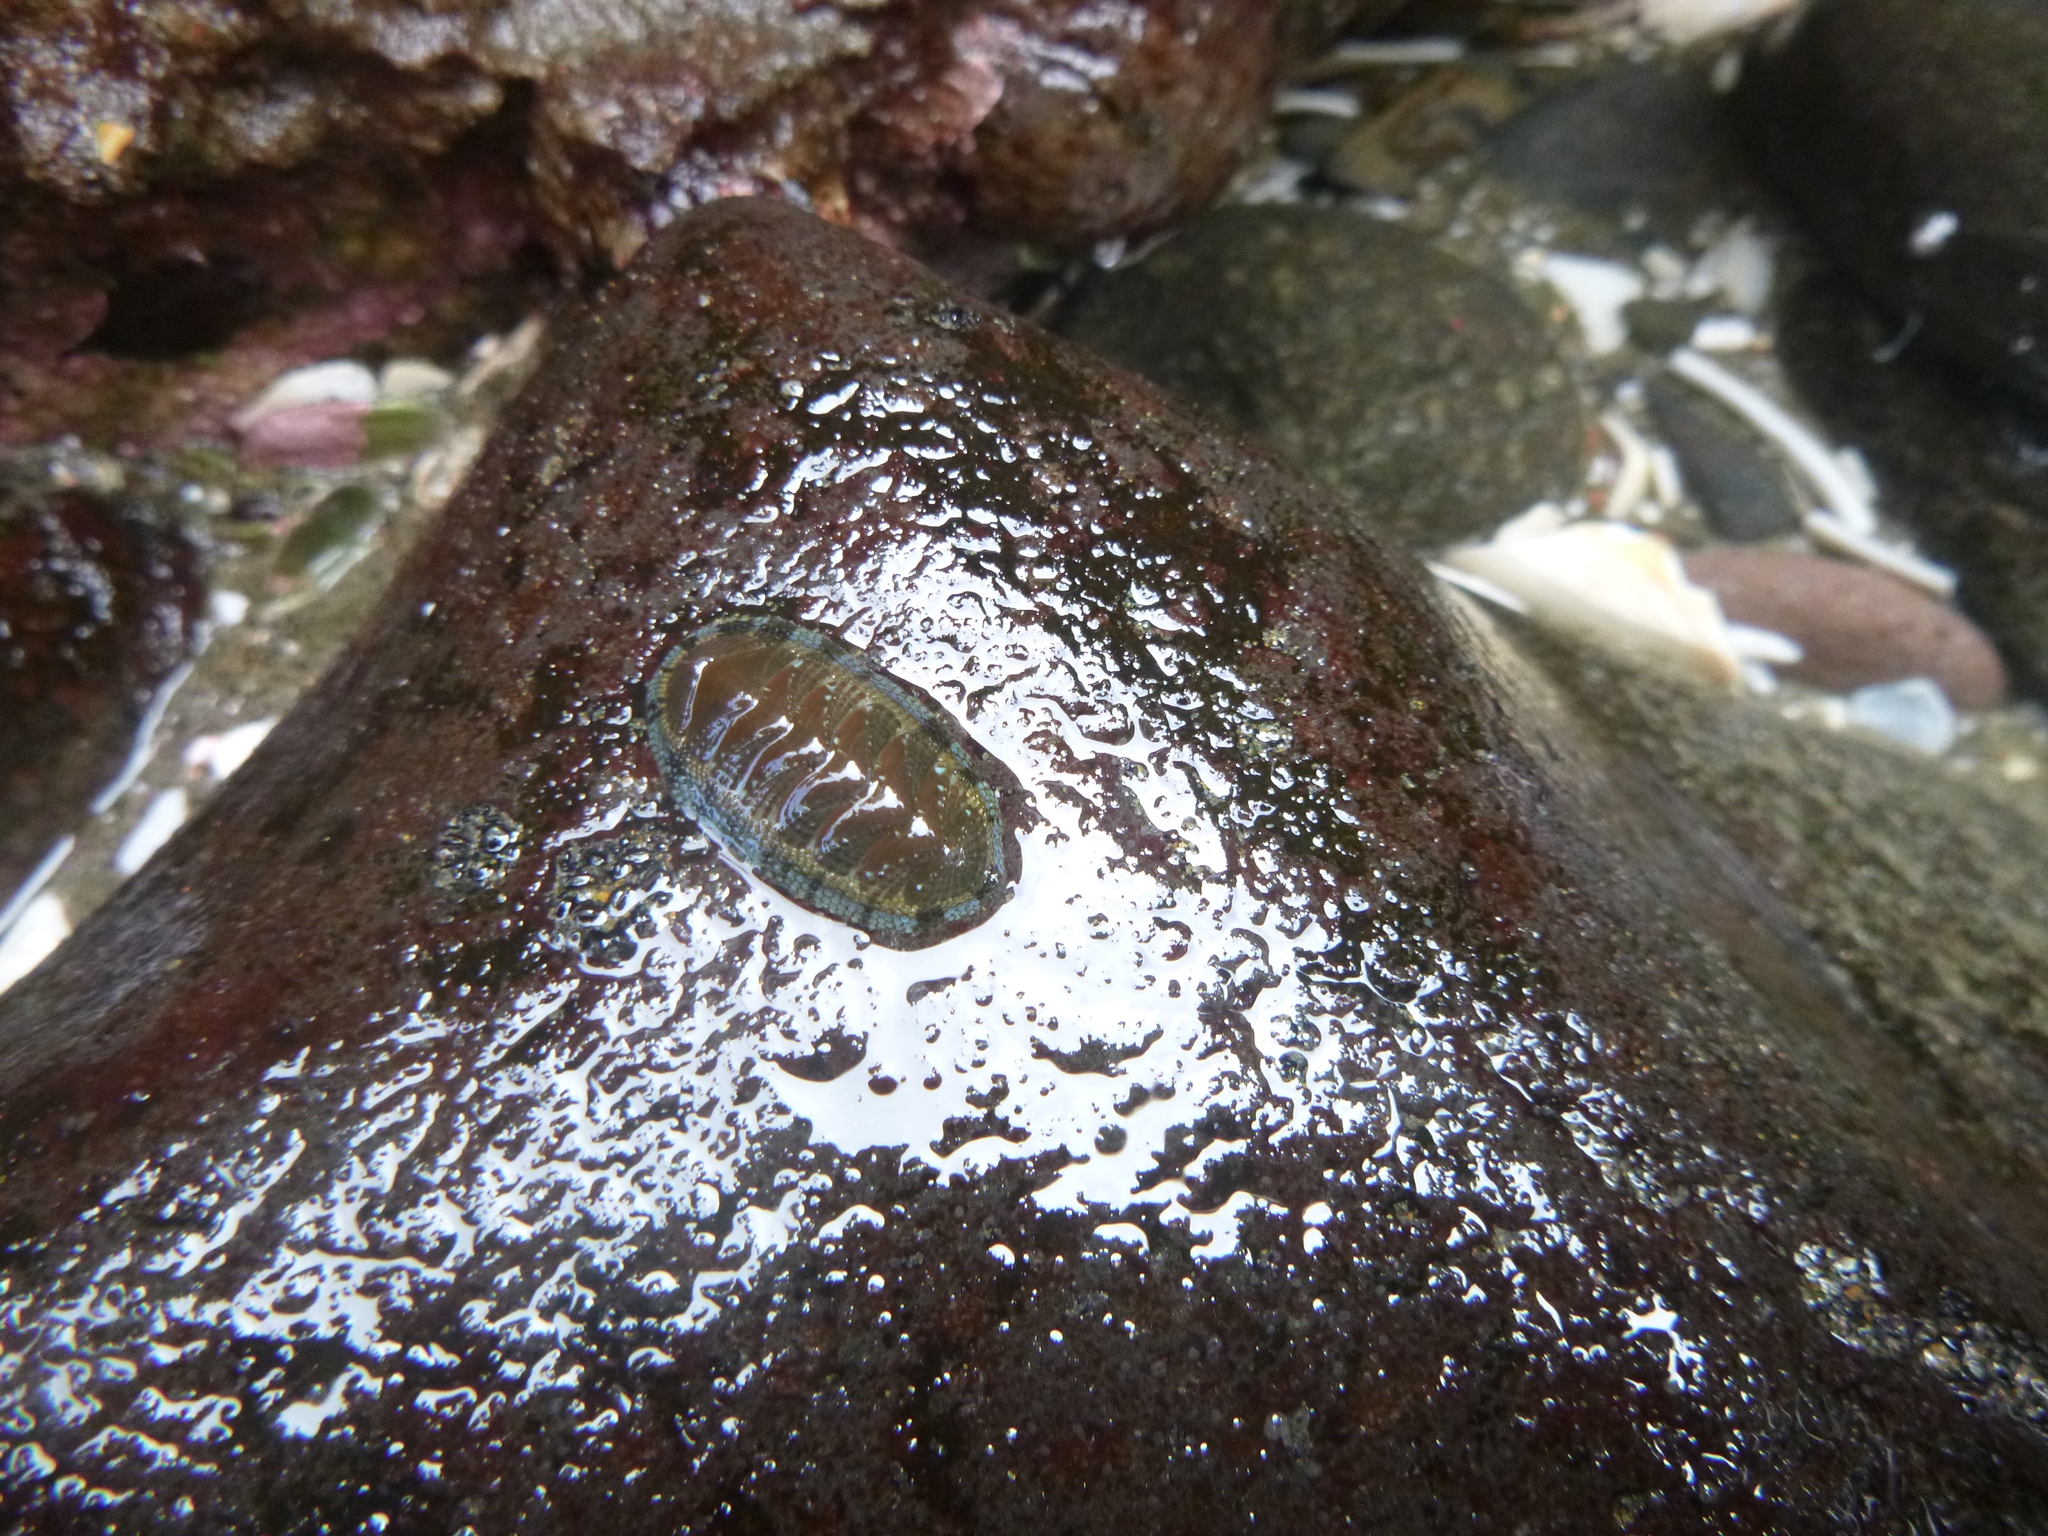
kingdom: Animalia
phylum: Mollusca
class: Polyplacophora
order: Chitonida
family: Chitonidae
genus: Sypharochiton
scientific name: Sypharochiton sinclairi
